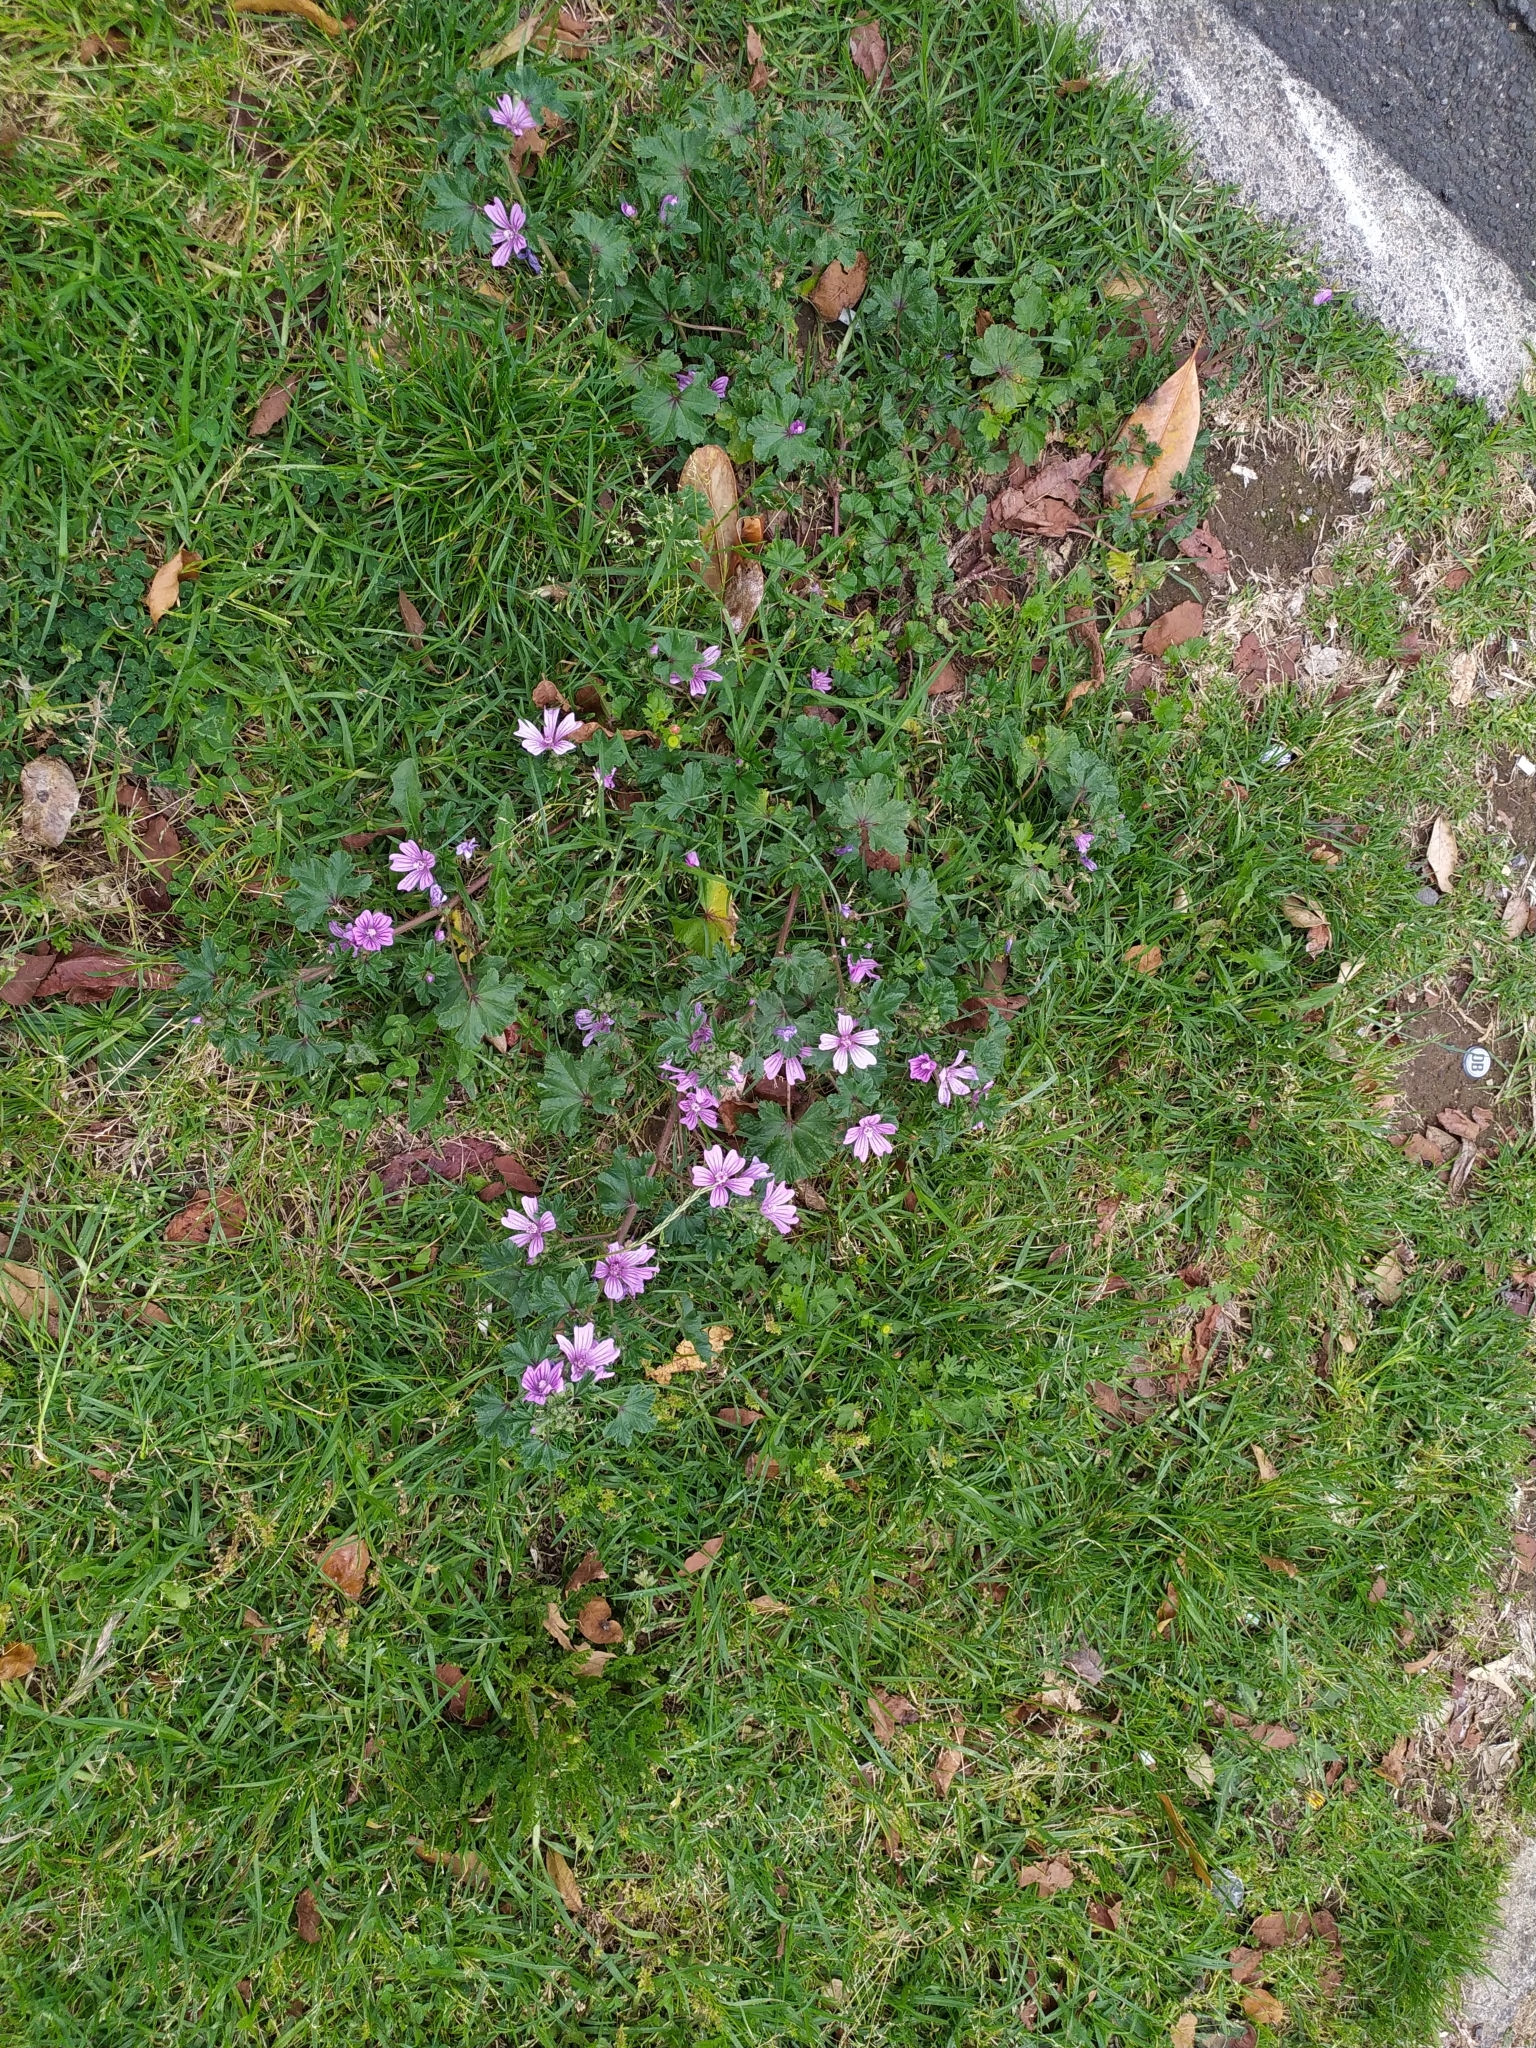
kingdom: Plantae
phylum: Tracheophyta
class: Magnoliopsida
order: Malvales
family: Malvaceae
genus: Malva
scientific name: Malva sylvestris
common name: Common mallow
